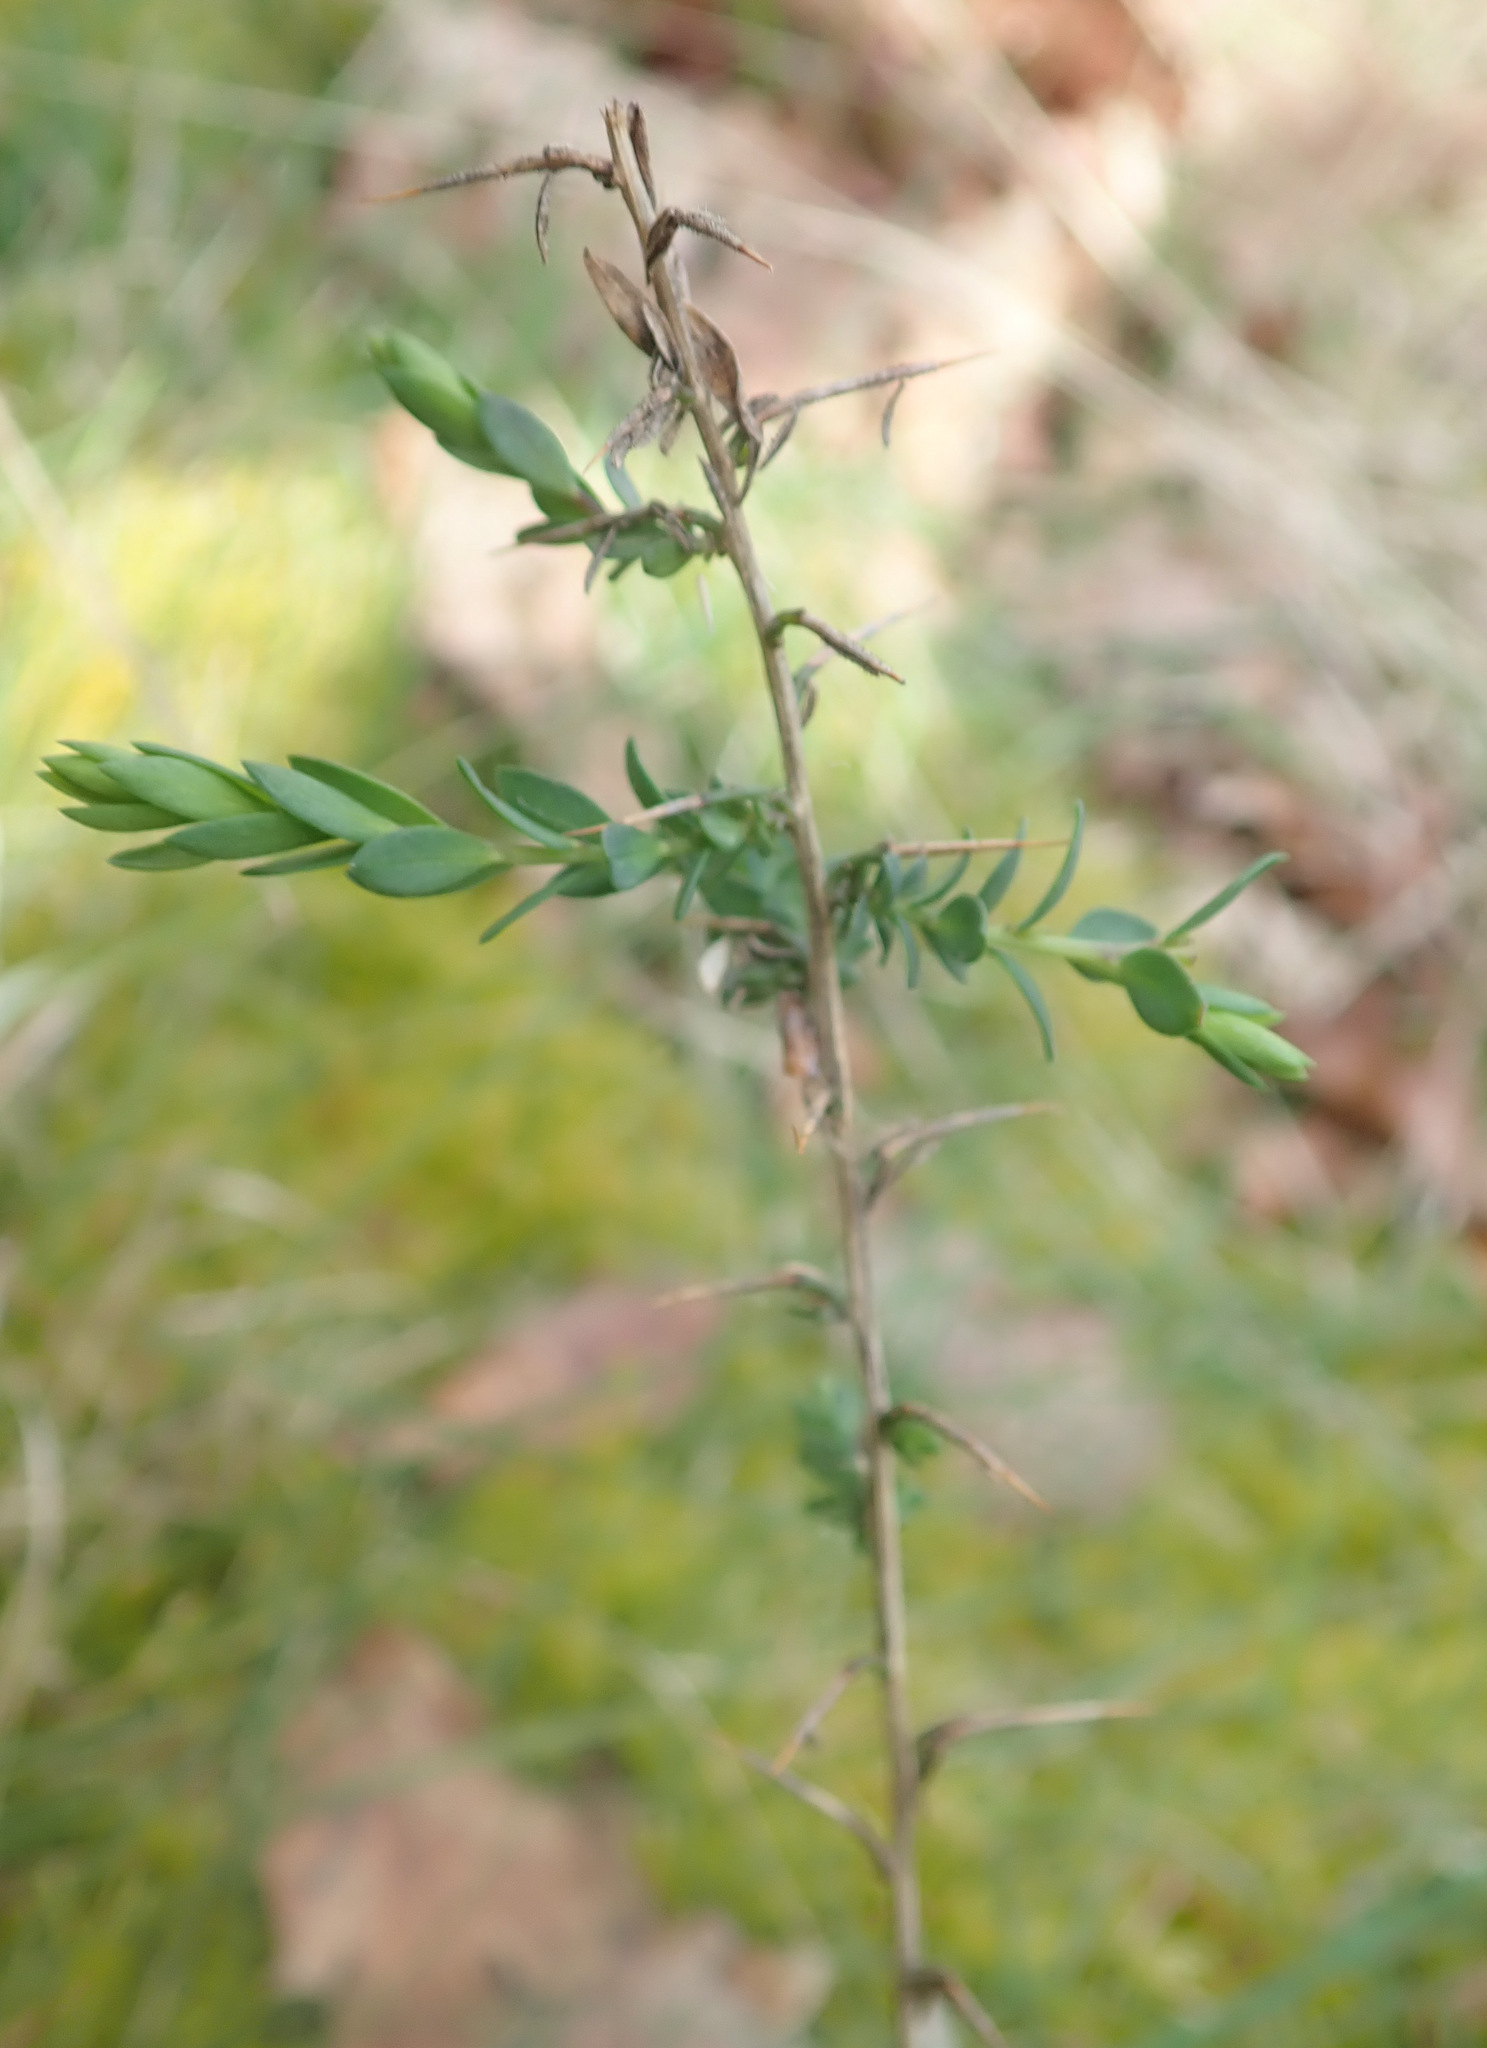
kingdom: Plantae
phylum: Tracheophyta
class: Magnoliopsida
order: Fabales
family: Fabaceae
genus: Genista
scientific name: Genista anglica
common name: Petty whin
